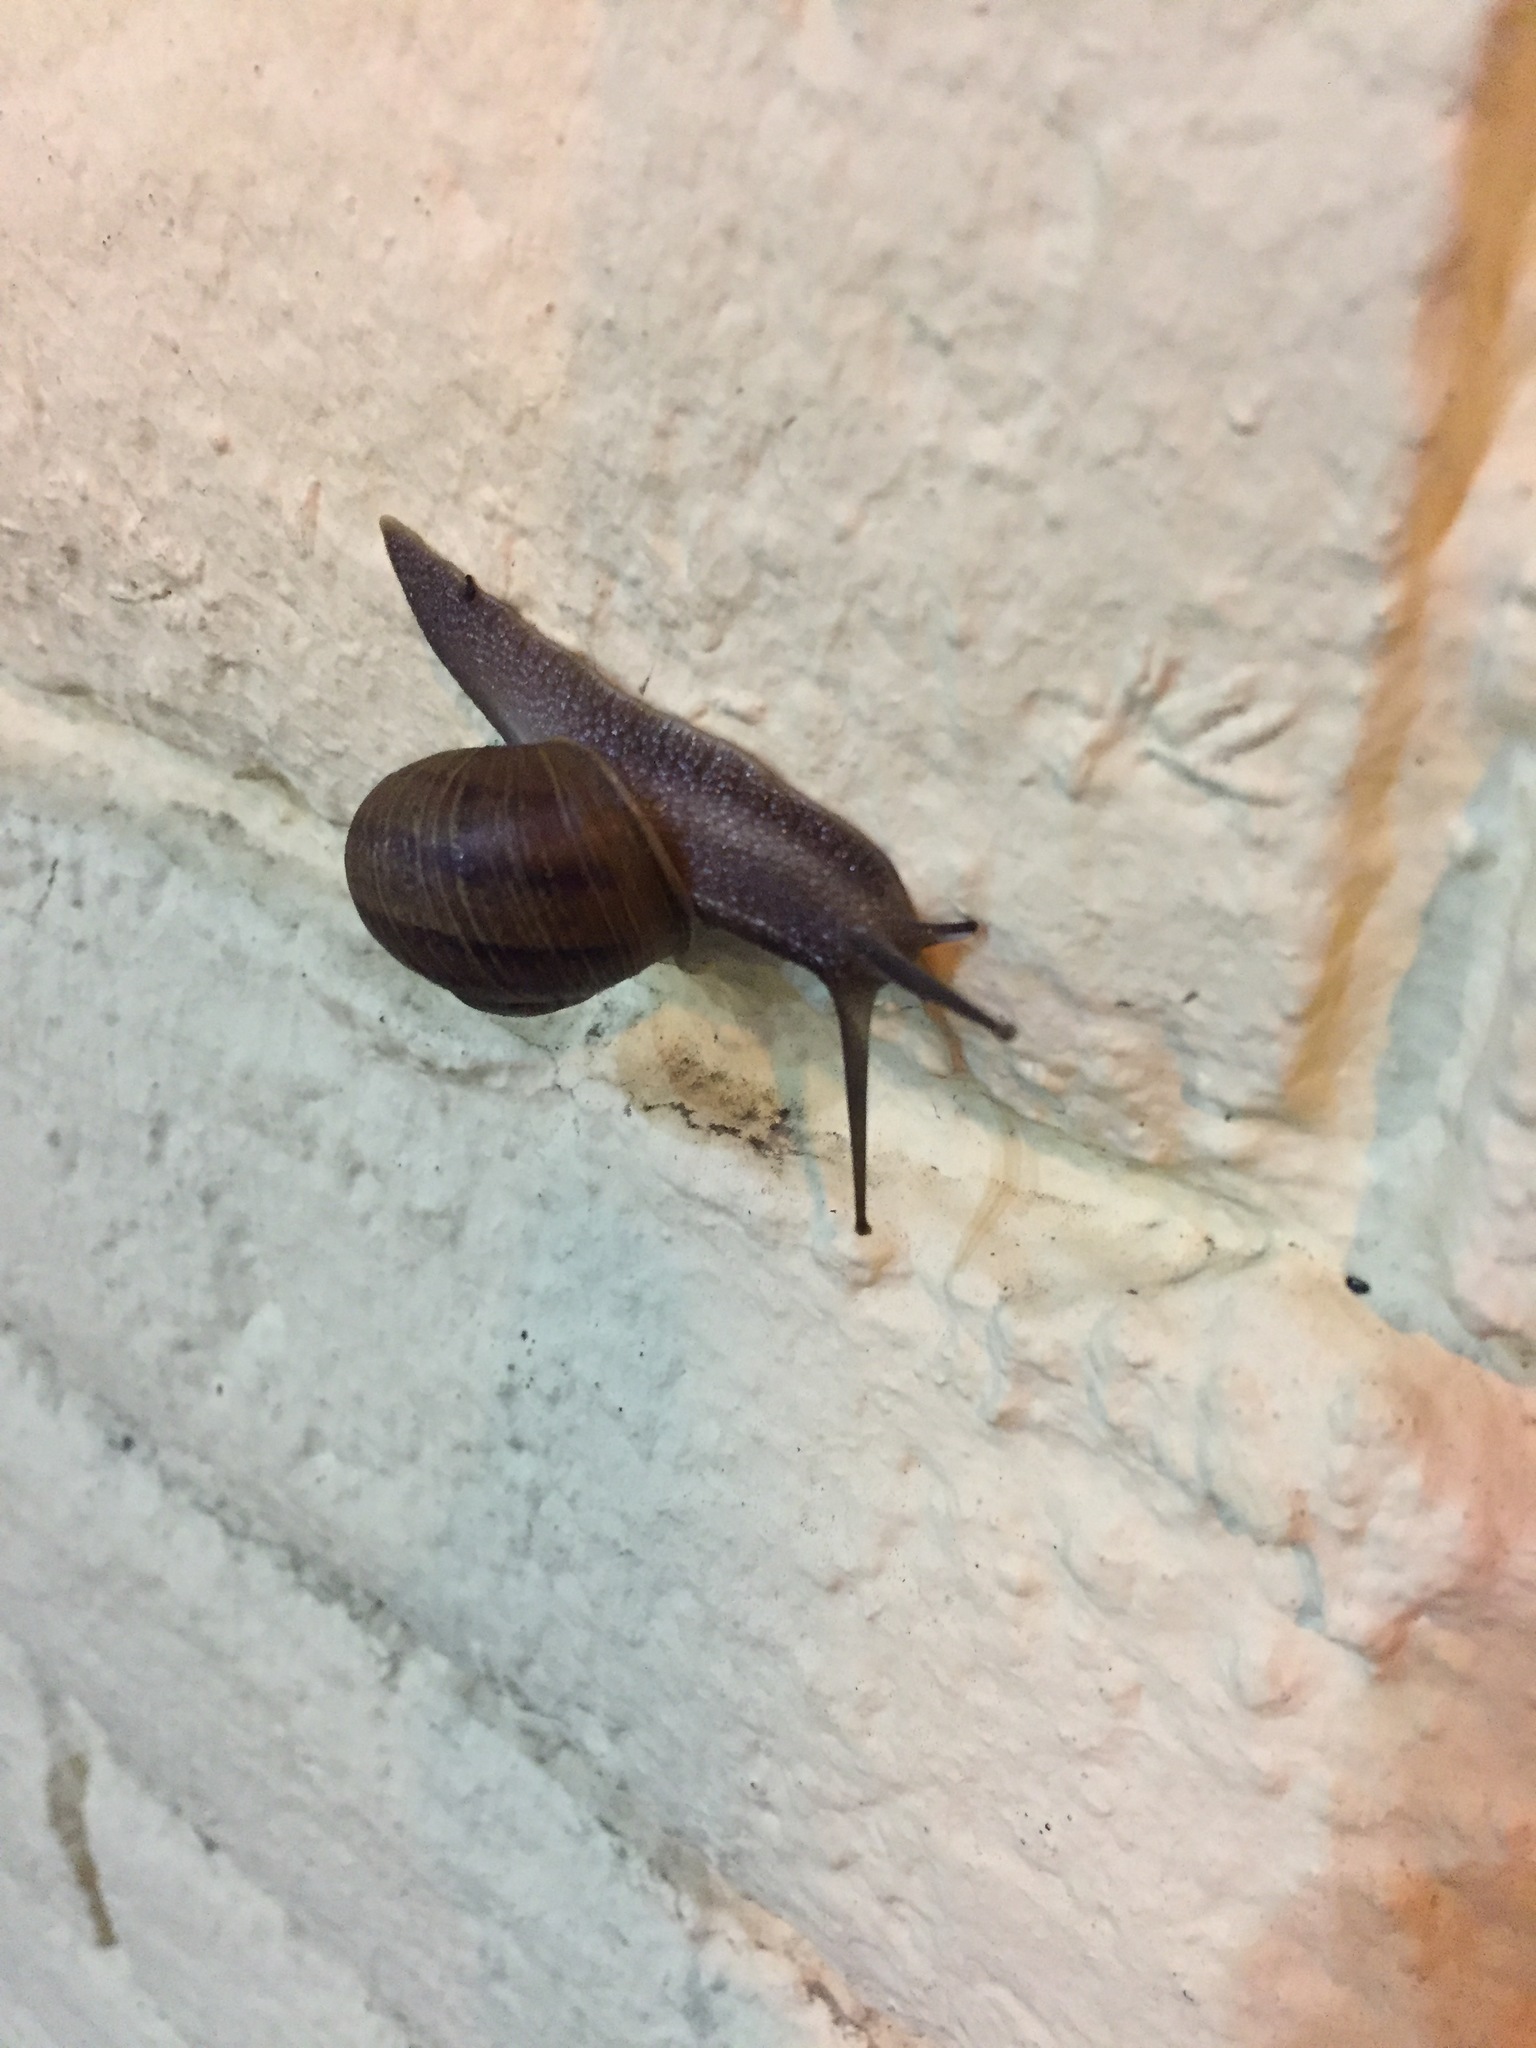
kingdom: Animalia
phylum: Mollusca
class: Gastropoda
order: Stylommatophora
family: Helicidae
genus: Cornu
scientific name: Cornu aspersum
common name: Brown garden snail
